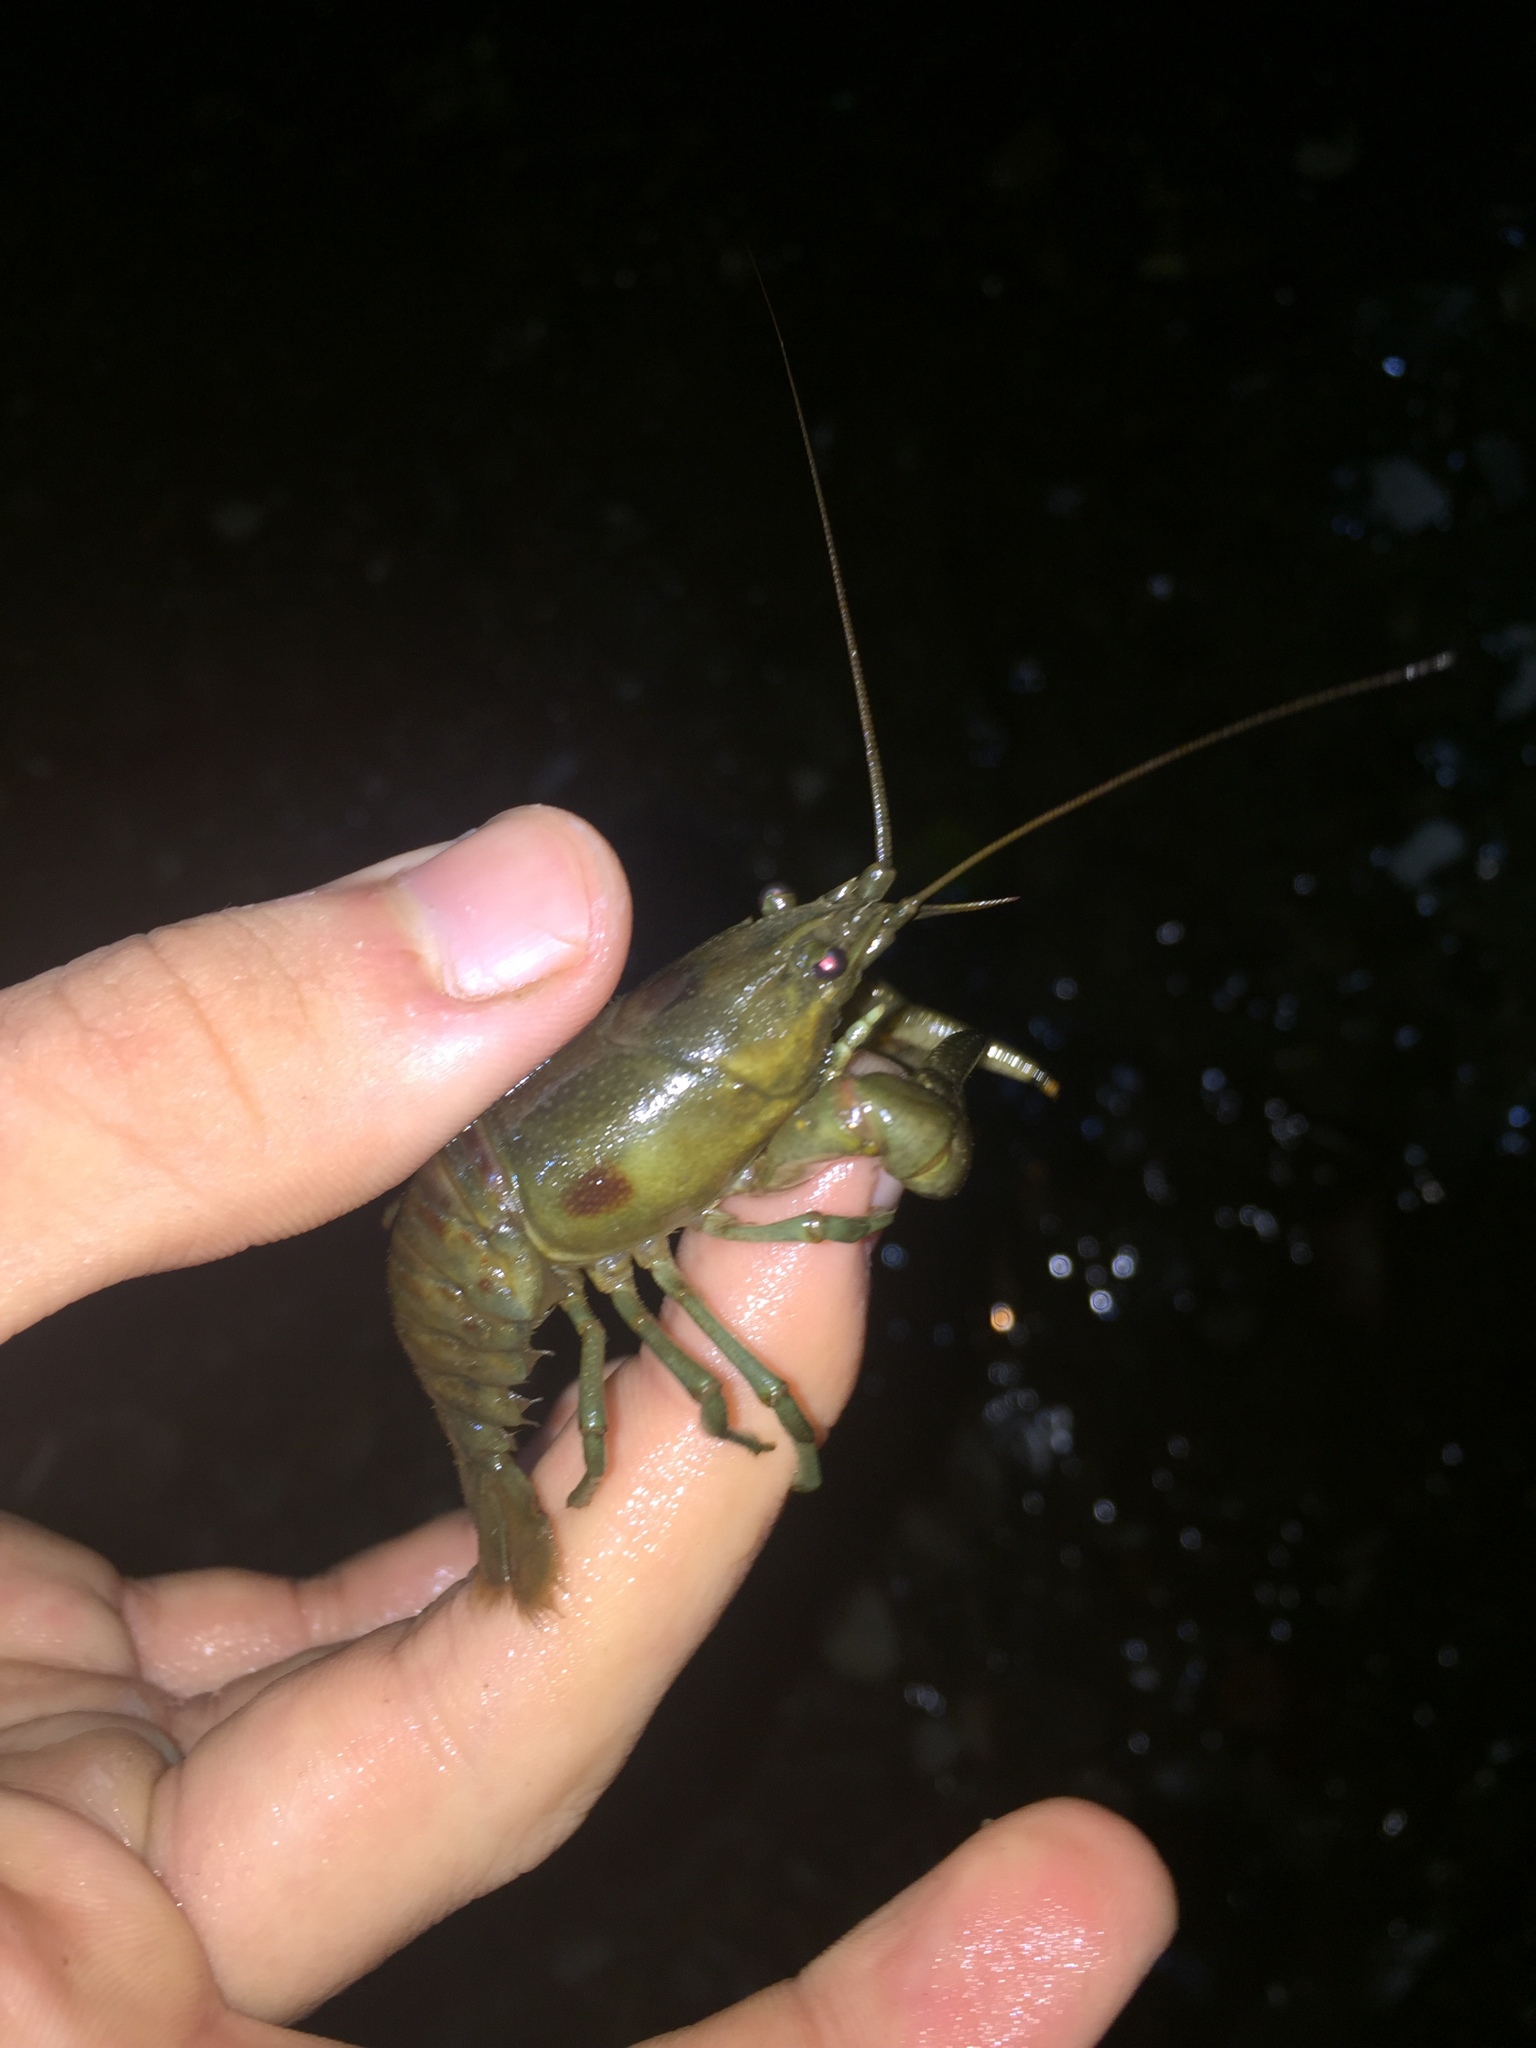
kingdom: Animalia
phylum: Arthropoda
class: Malacostraca
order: Decapoda
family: Cambaridae
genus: Faxonius
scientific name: Faxonius rusticus
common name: Rusty crayfish
